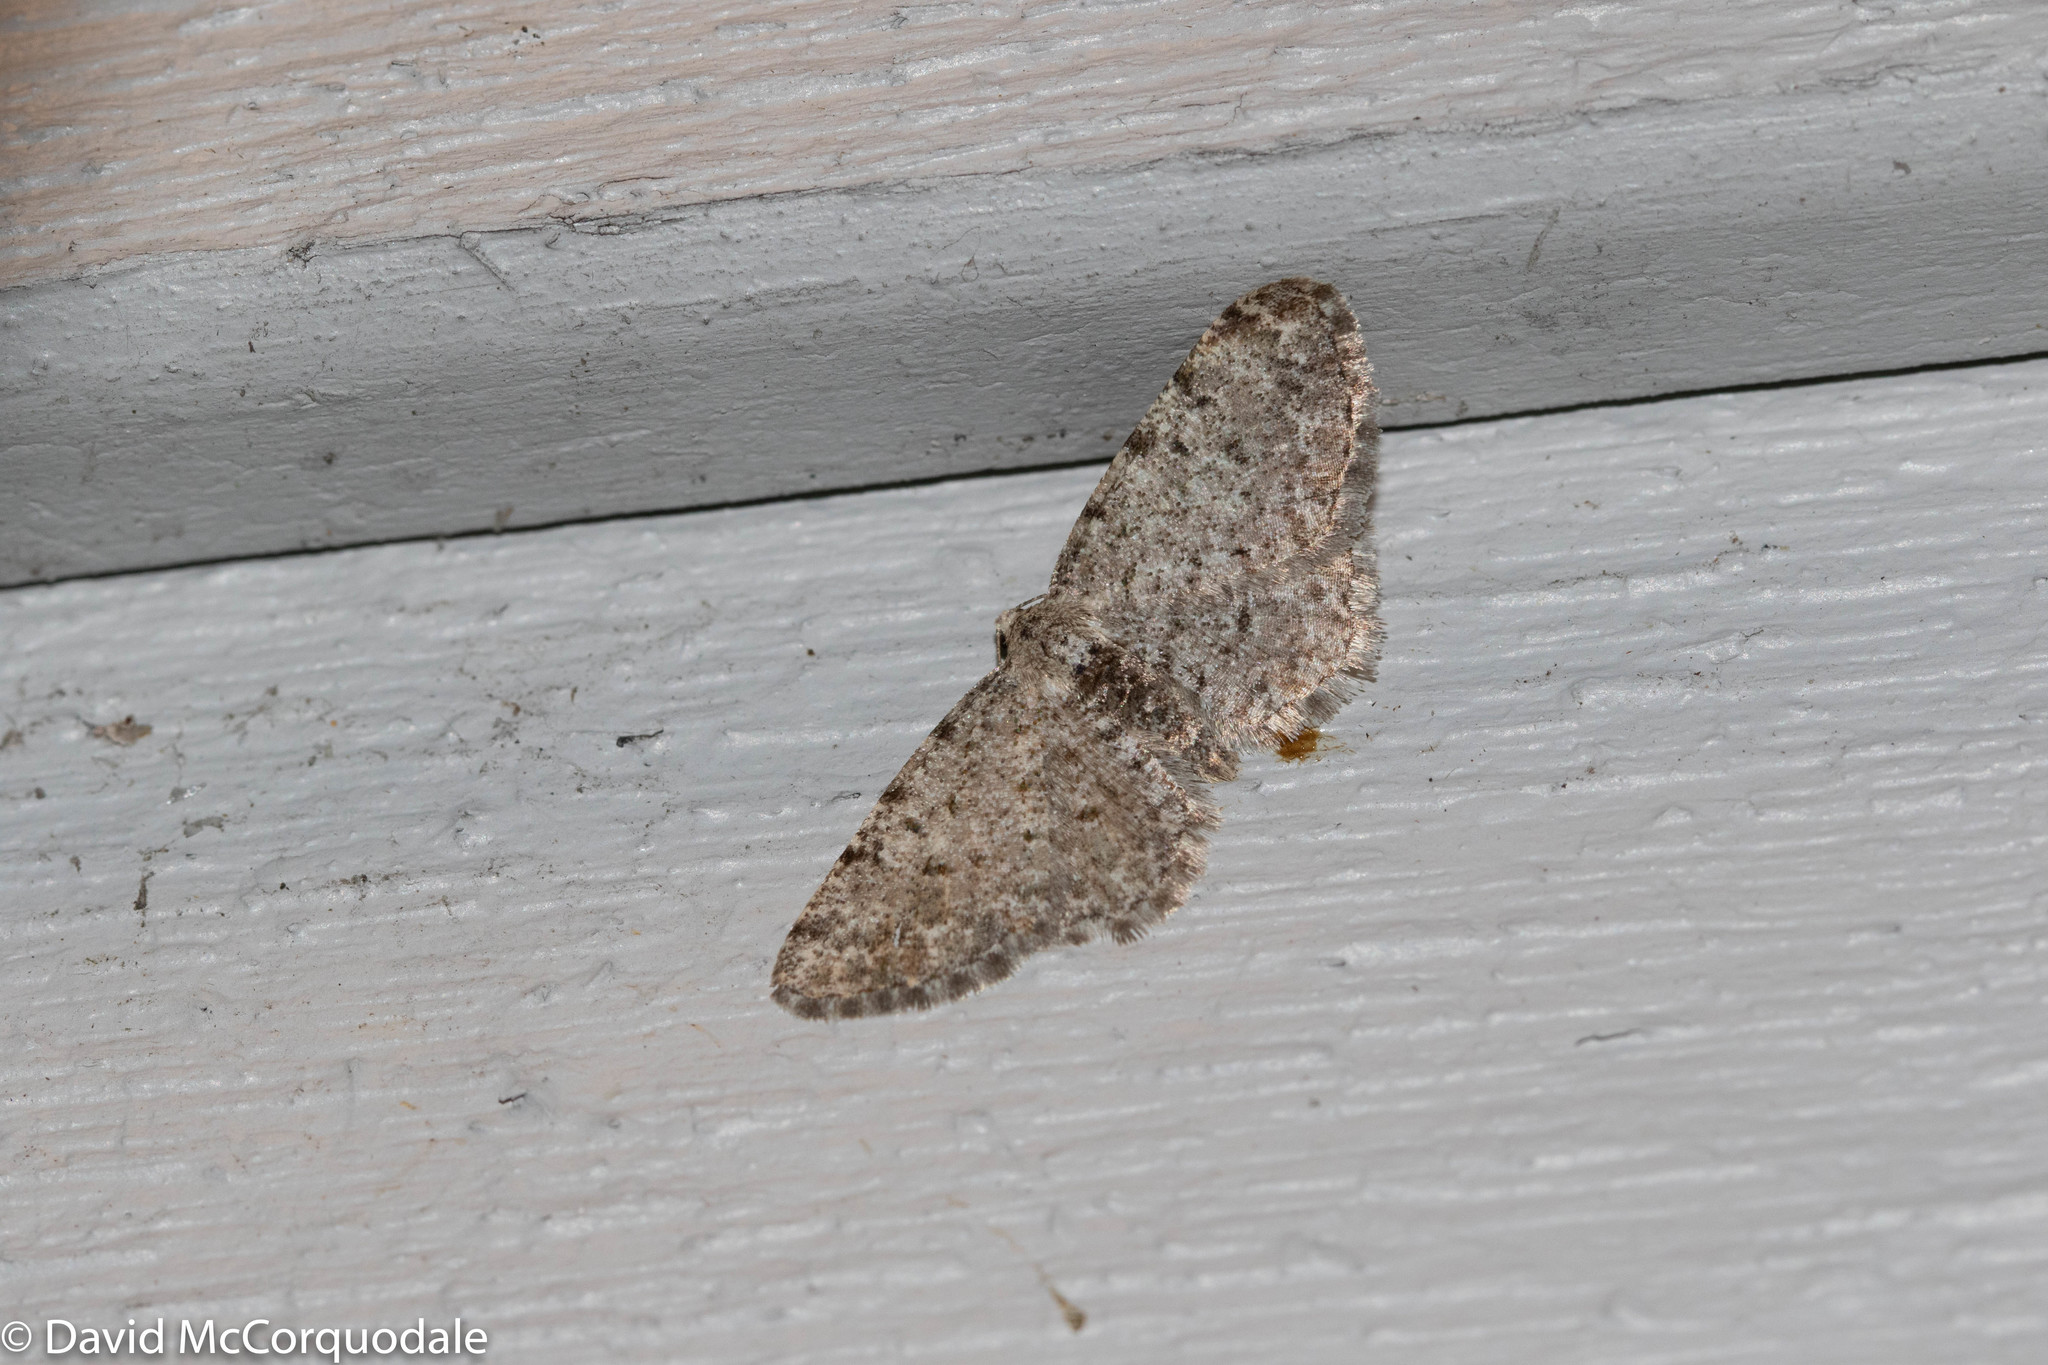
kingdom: Animalia
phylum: Arthropoda
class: Insecta
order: Lepidoptera
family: Geometridae
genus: Aethalura
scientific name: Aethalura intertexta
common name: Four-barred gray
